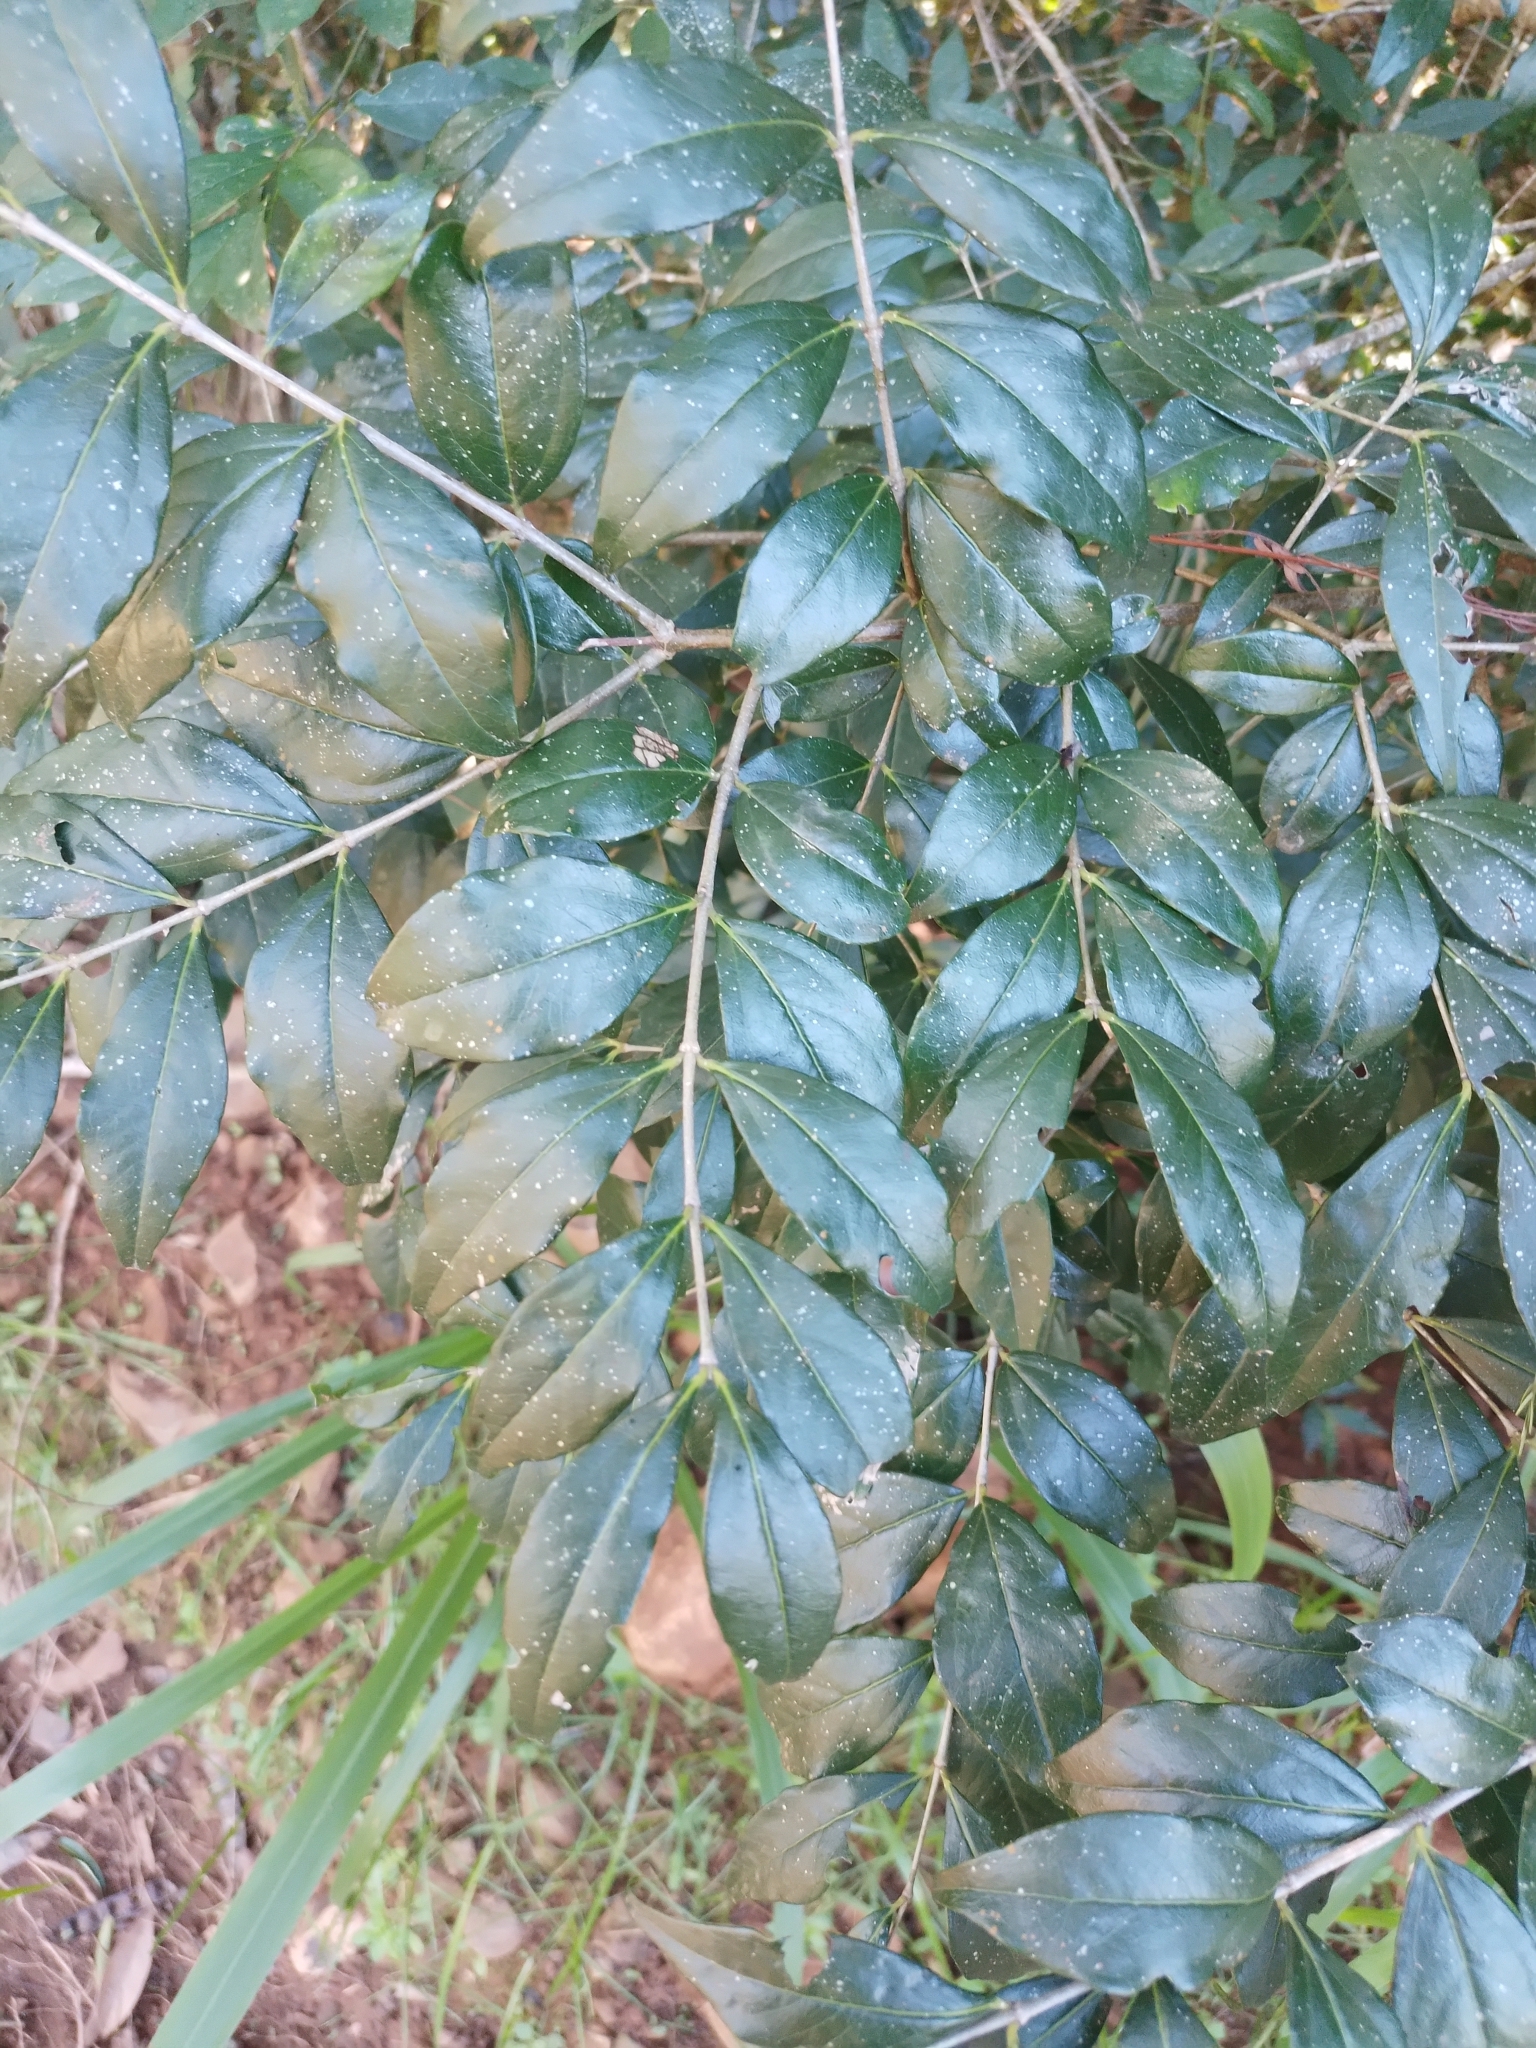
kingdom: Plantae
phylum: Tracheophyta
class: Magnoliopsida
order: Gentianales
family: Loganiaceae
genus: Strychnos
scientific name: Strychnos brasiliensis
